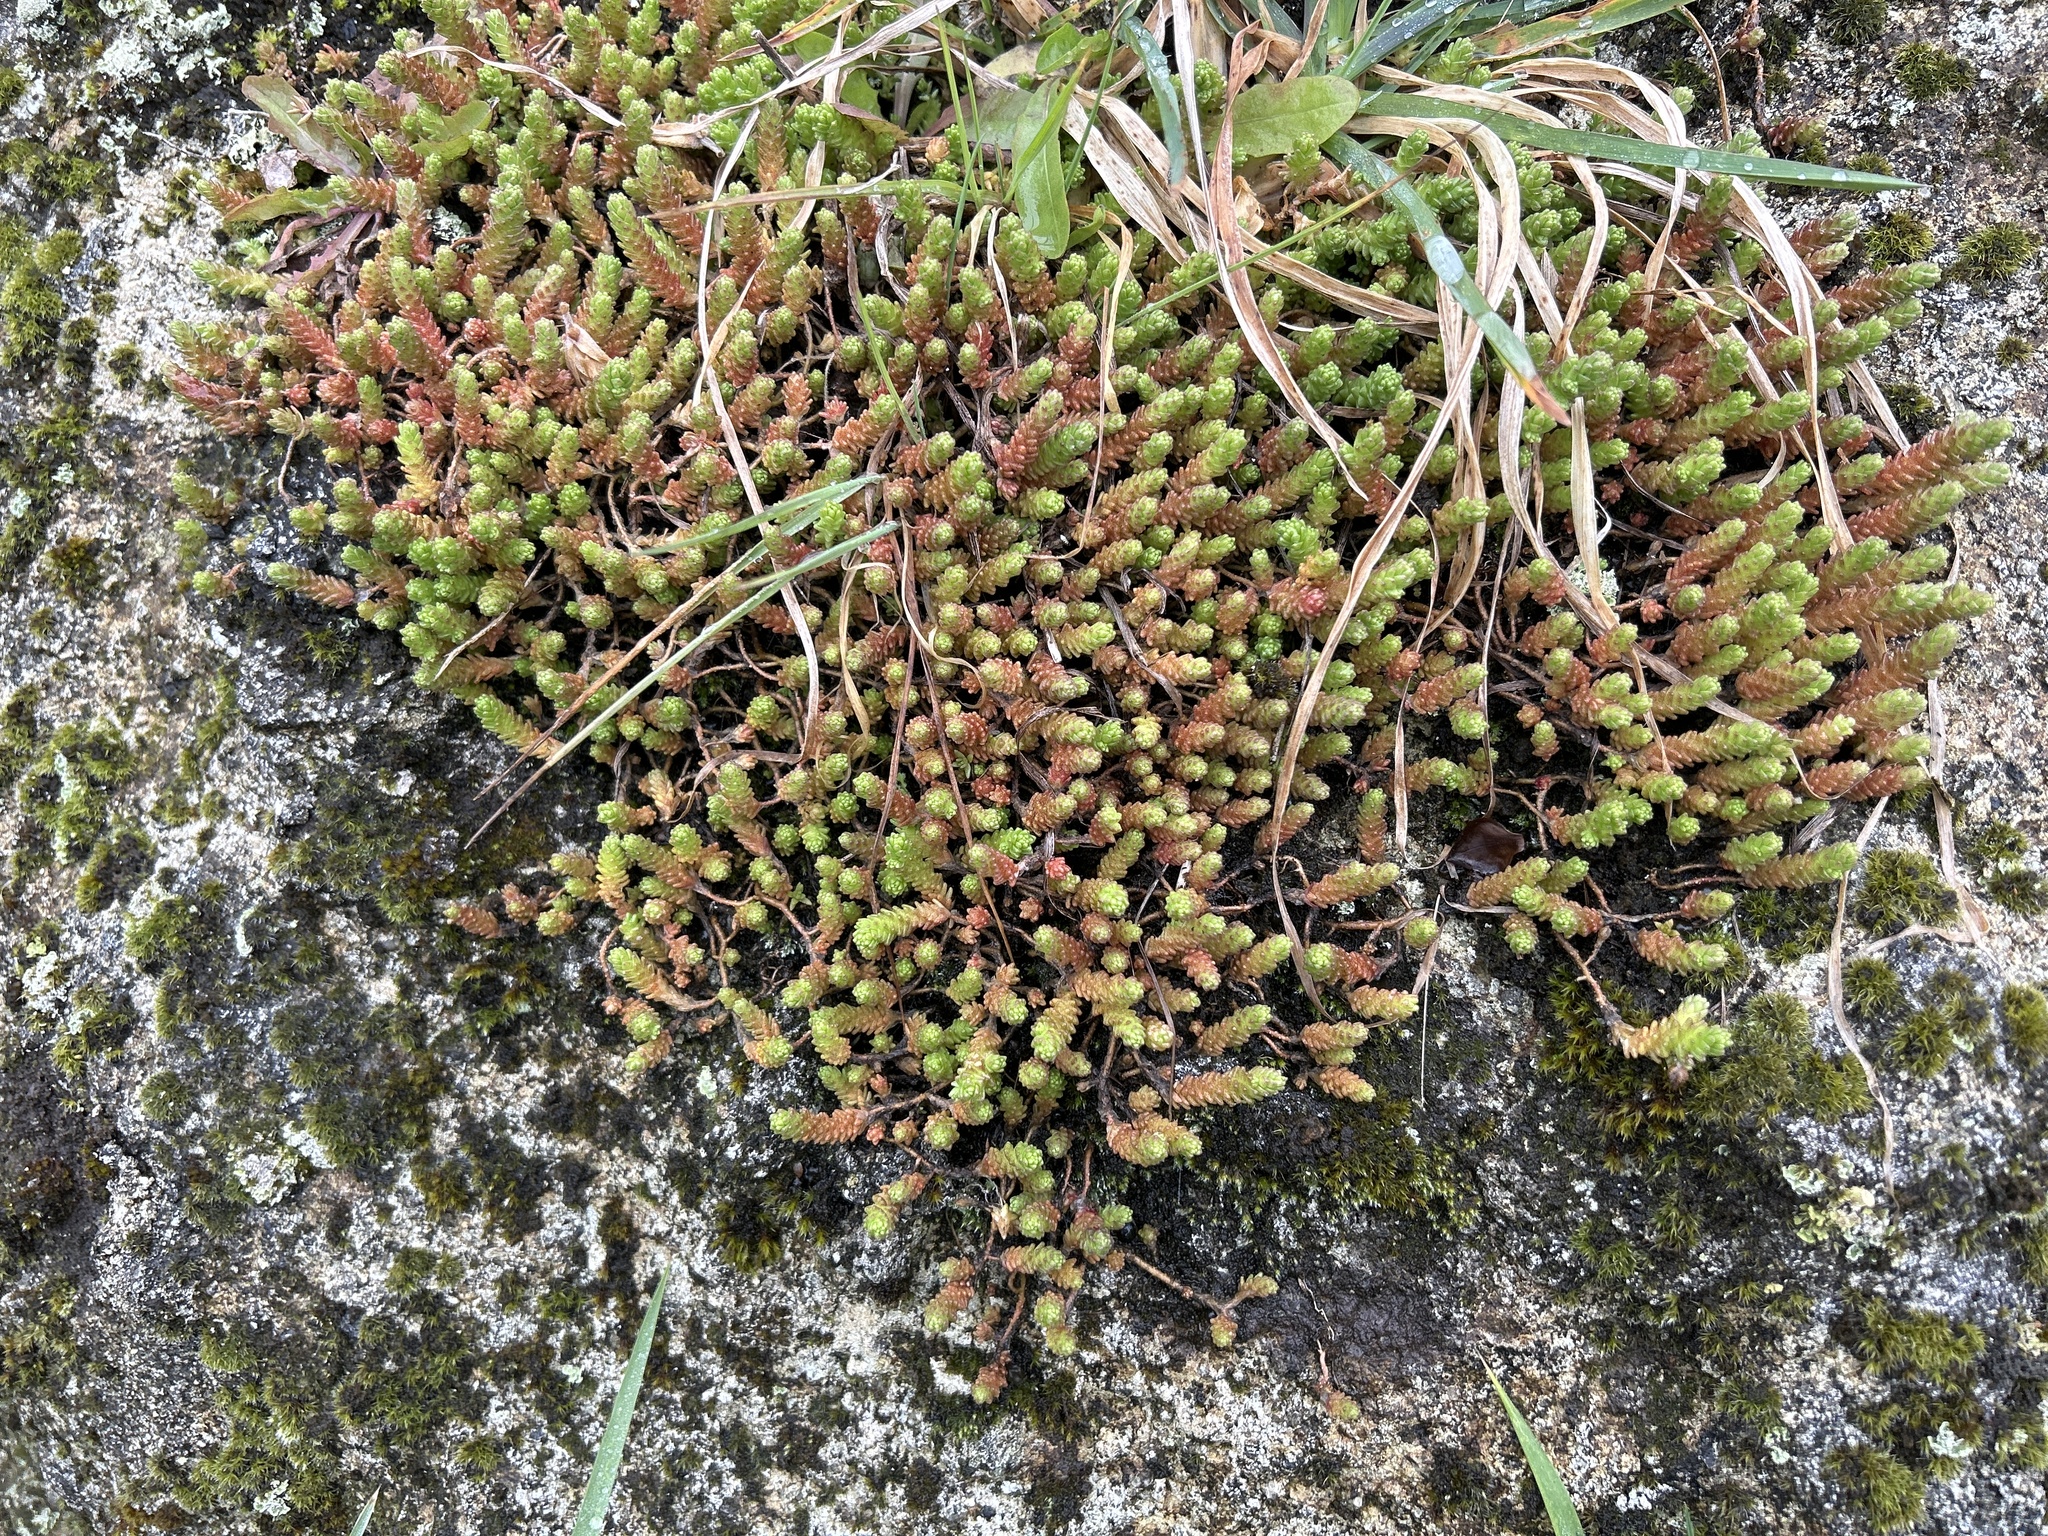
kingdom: Plantae
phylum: Tracheophyta
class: Magnoliopsida
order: Saxifragales
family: Crassulaceae
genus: Sedum
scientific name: Sedum acre
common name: Biting stonecrop
